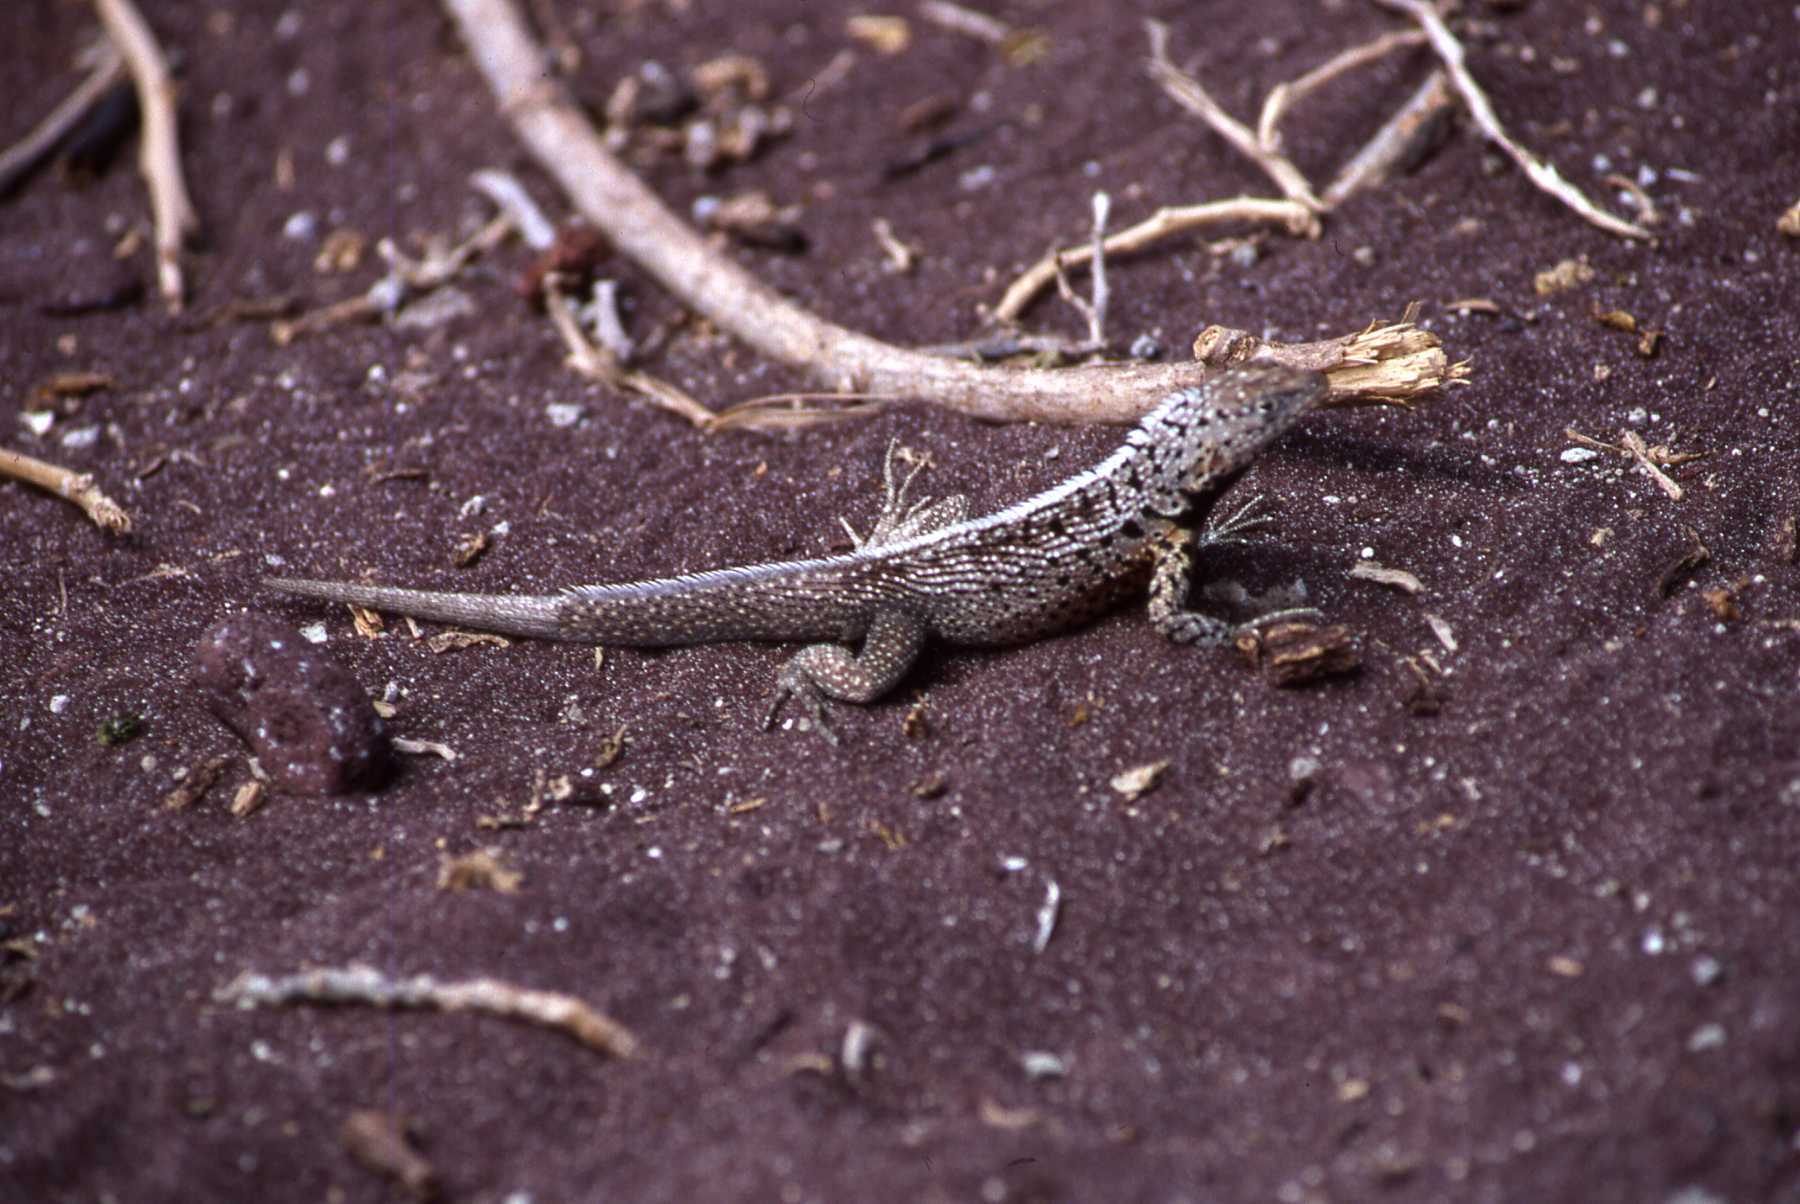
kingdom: Animalia
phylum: Chordata
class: Squamata
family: Tropiduridae
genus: Microlophus
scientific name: Microlophus jacobii
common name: Santiago lava lizard
